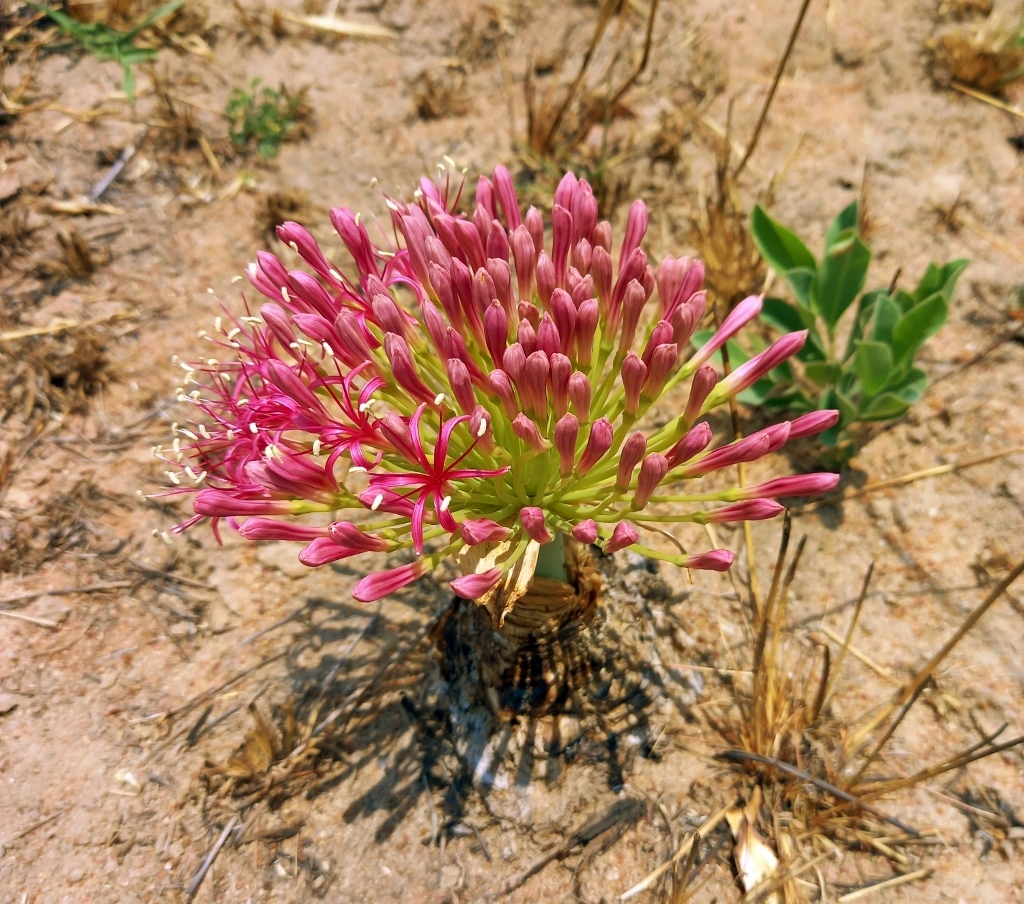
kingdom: Plantae
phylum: Tracheophyta
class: Liliopsida
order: Asparagales
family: Amaryllidaceae
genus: Boophone
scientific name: Boophone disticha
